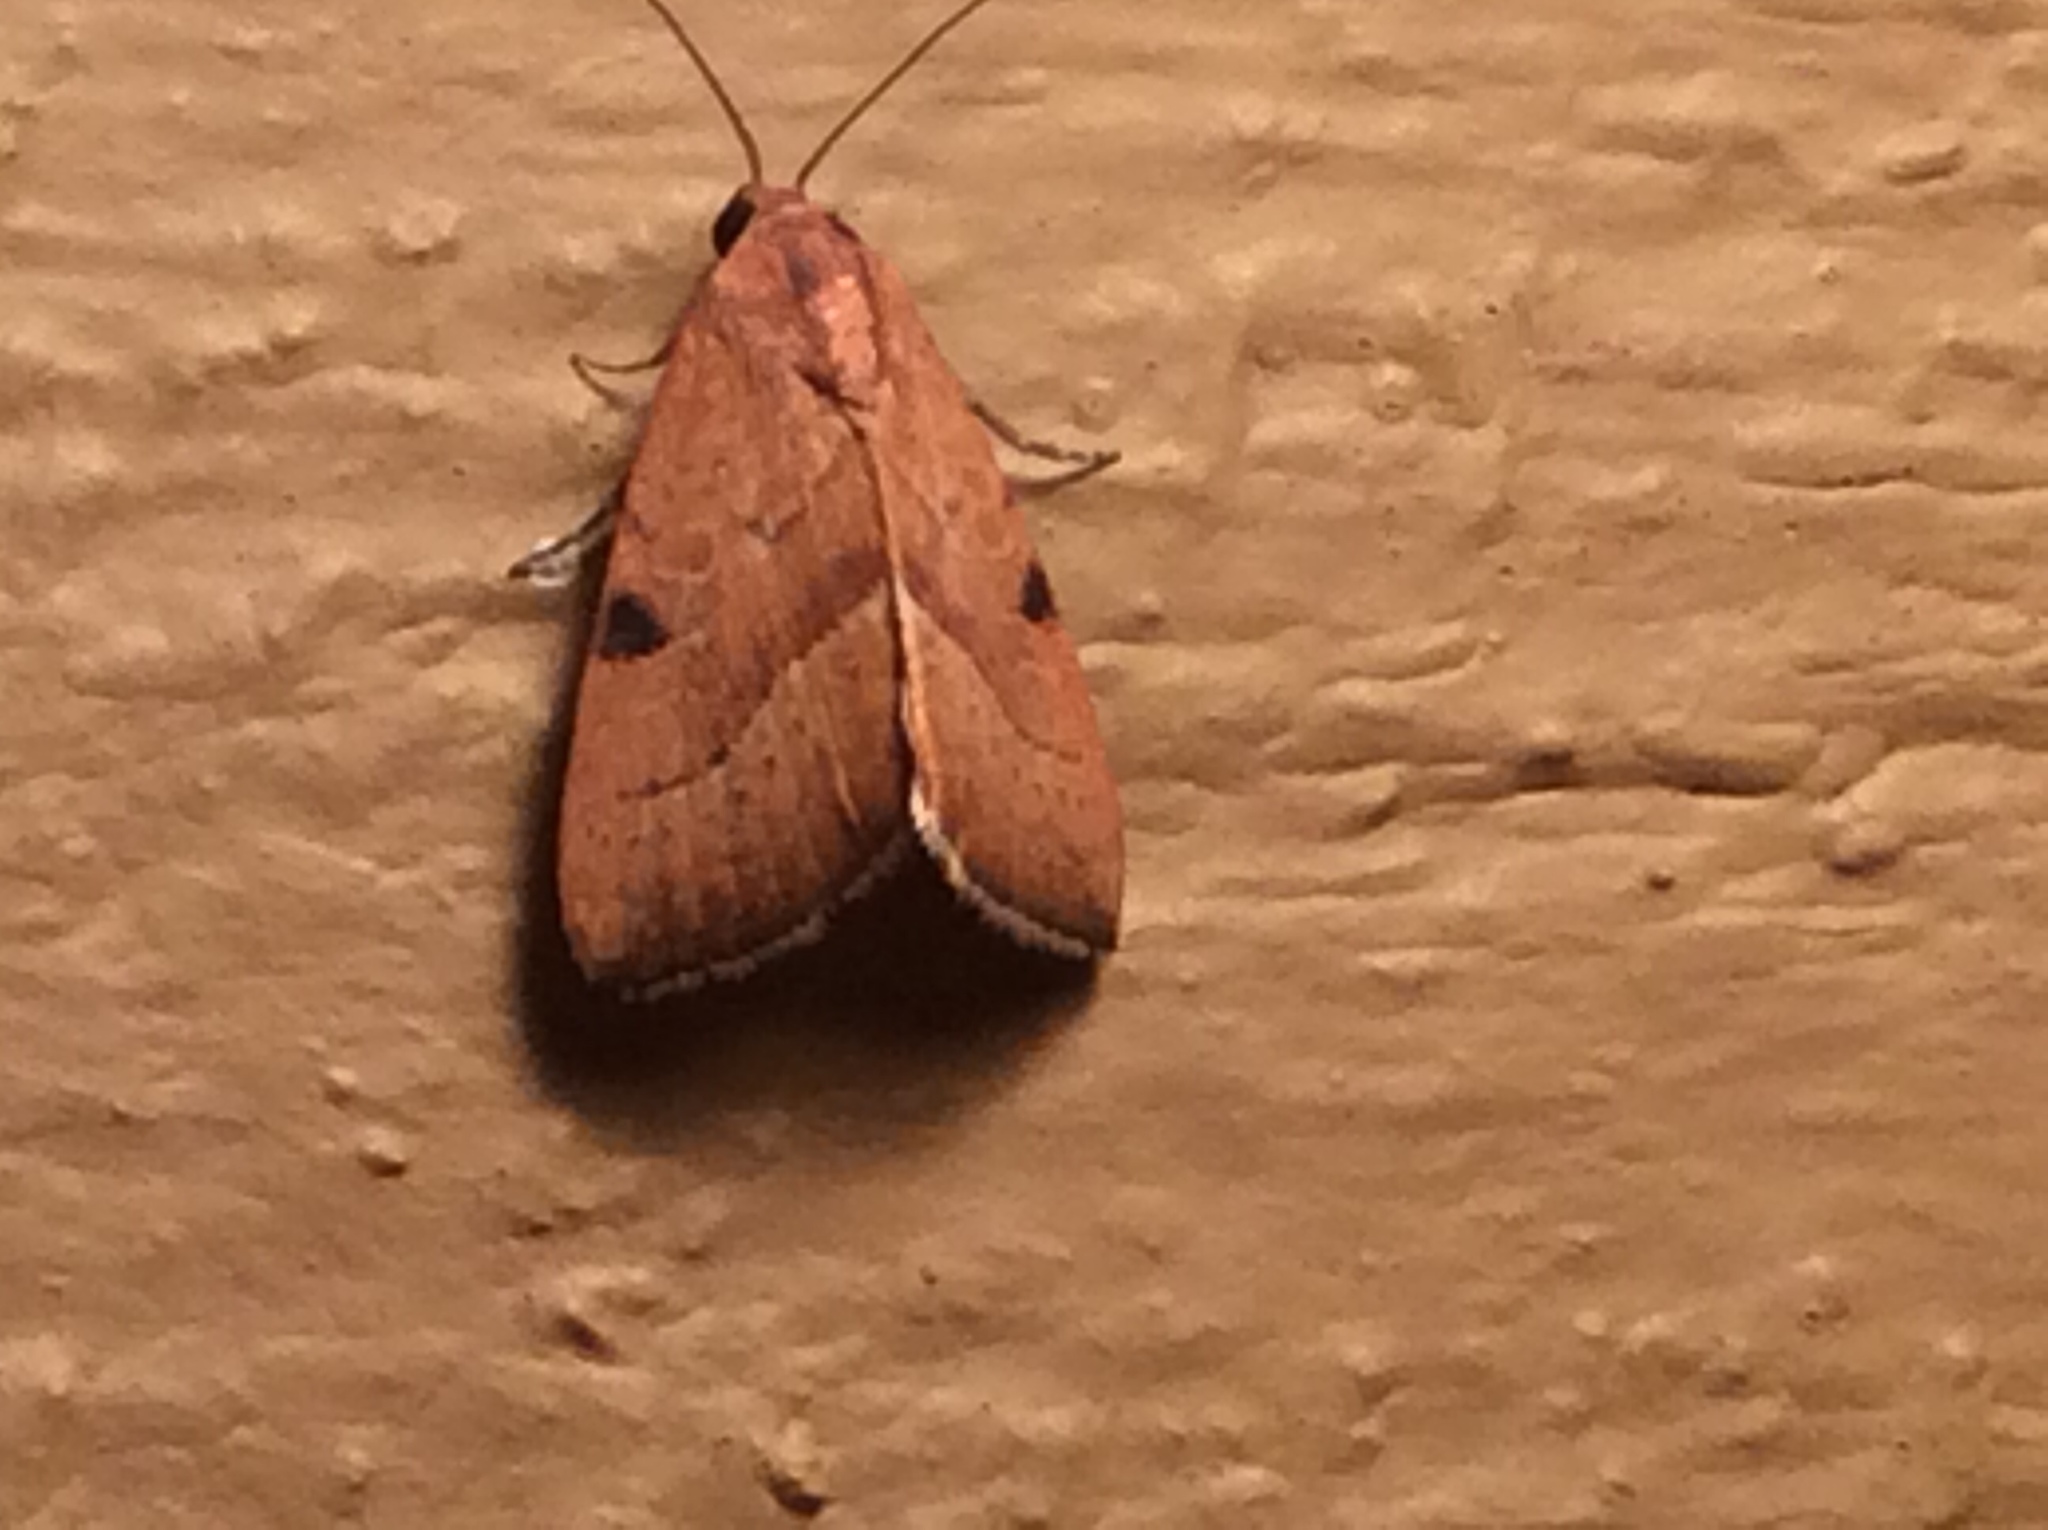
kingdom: Animalia
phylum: Arthropoda
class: Insecta
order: Lepidoptera
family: Noctuidae
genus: Galgula
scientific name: Galgula partita
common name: Wedgeling
